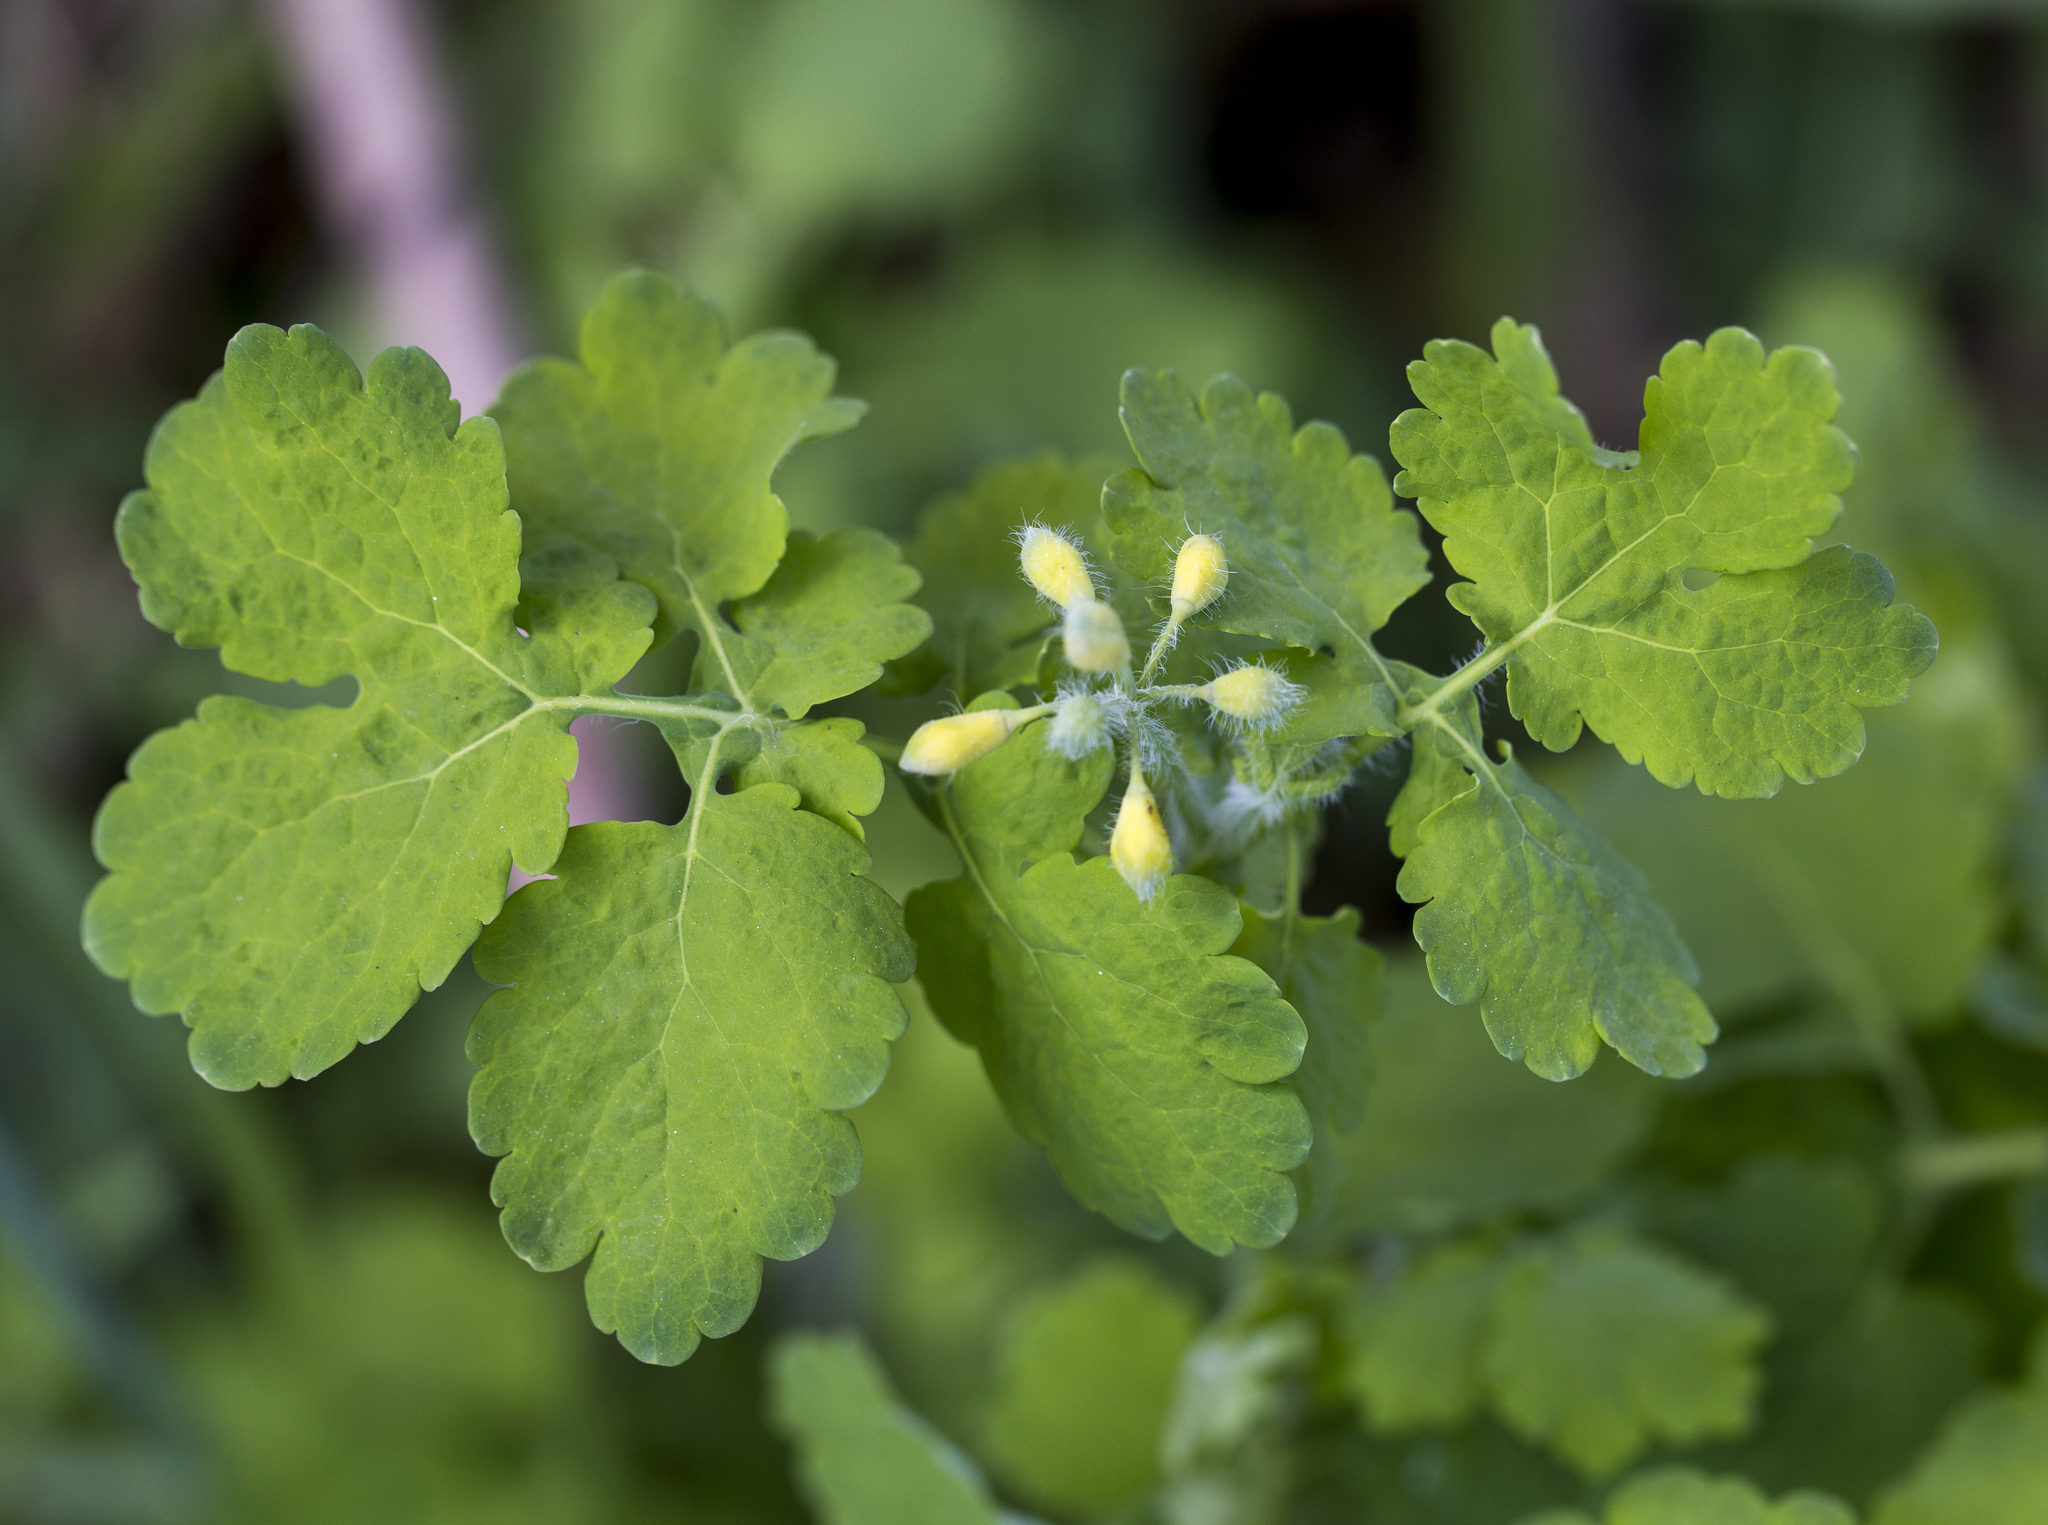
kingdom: Plantae
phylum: Tracheophyta
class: Magnoliopsida
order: Ranunculales
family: Papaveraceae
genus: Chelidonium
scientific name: Chelidonium majus
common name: Greater celandine
